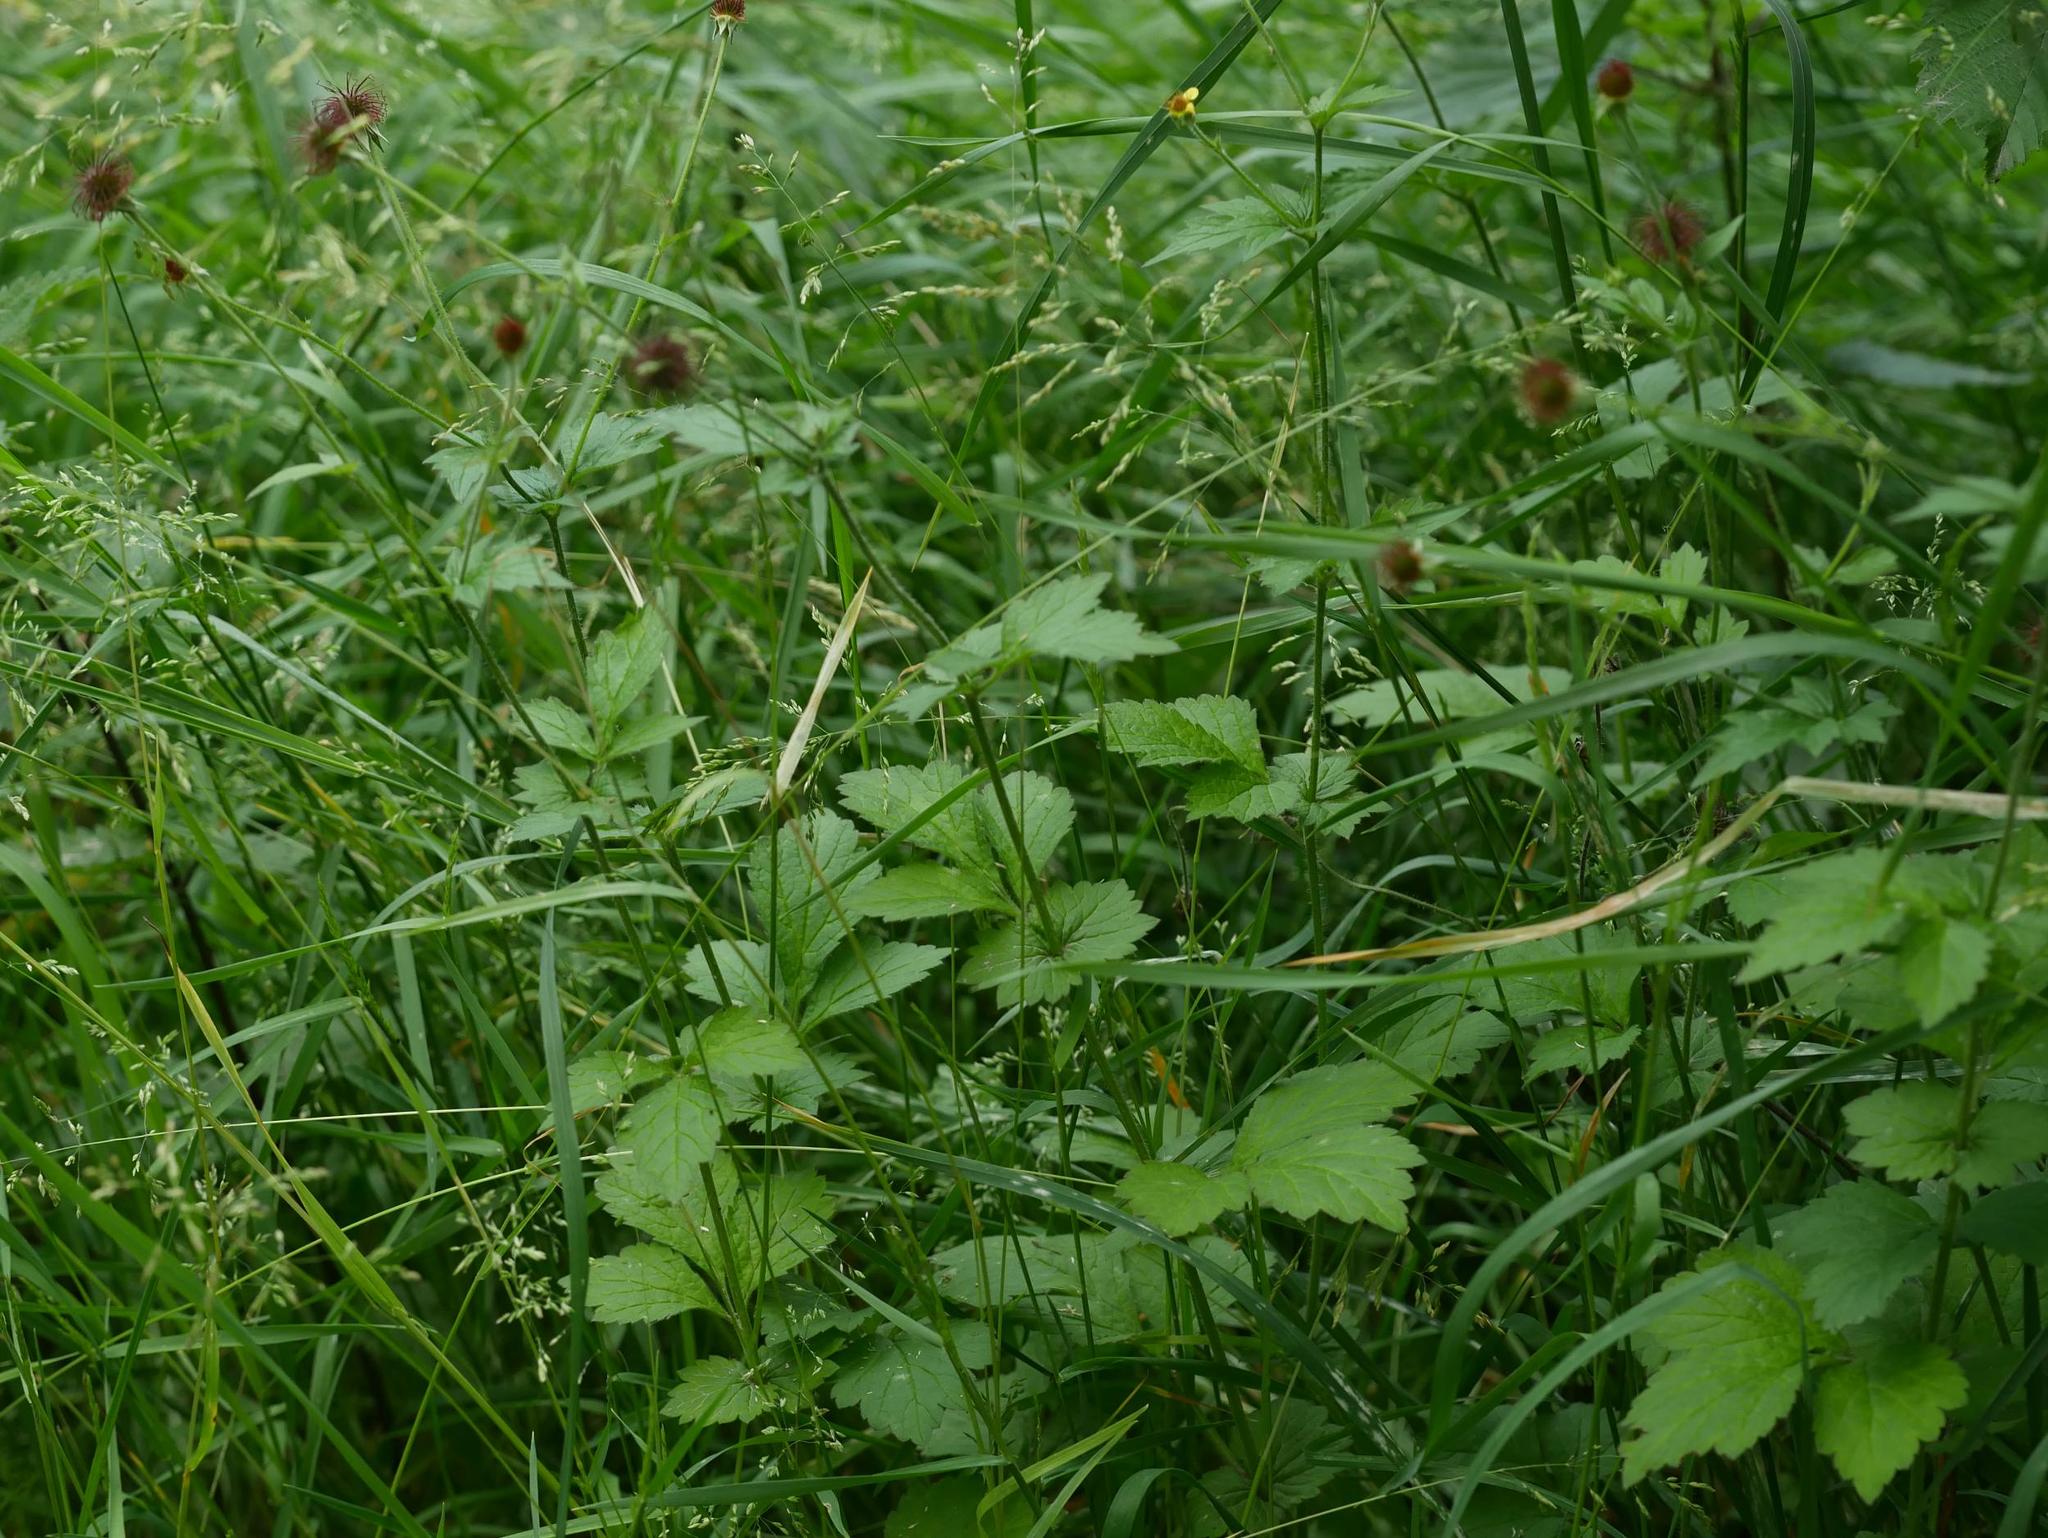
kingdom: Plantae
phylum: Tracheophyta
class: Magnoliopsida
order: Rosales
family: Rosaceae
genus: Geum
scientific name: Geum urbanum
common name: Wood avens
